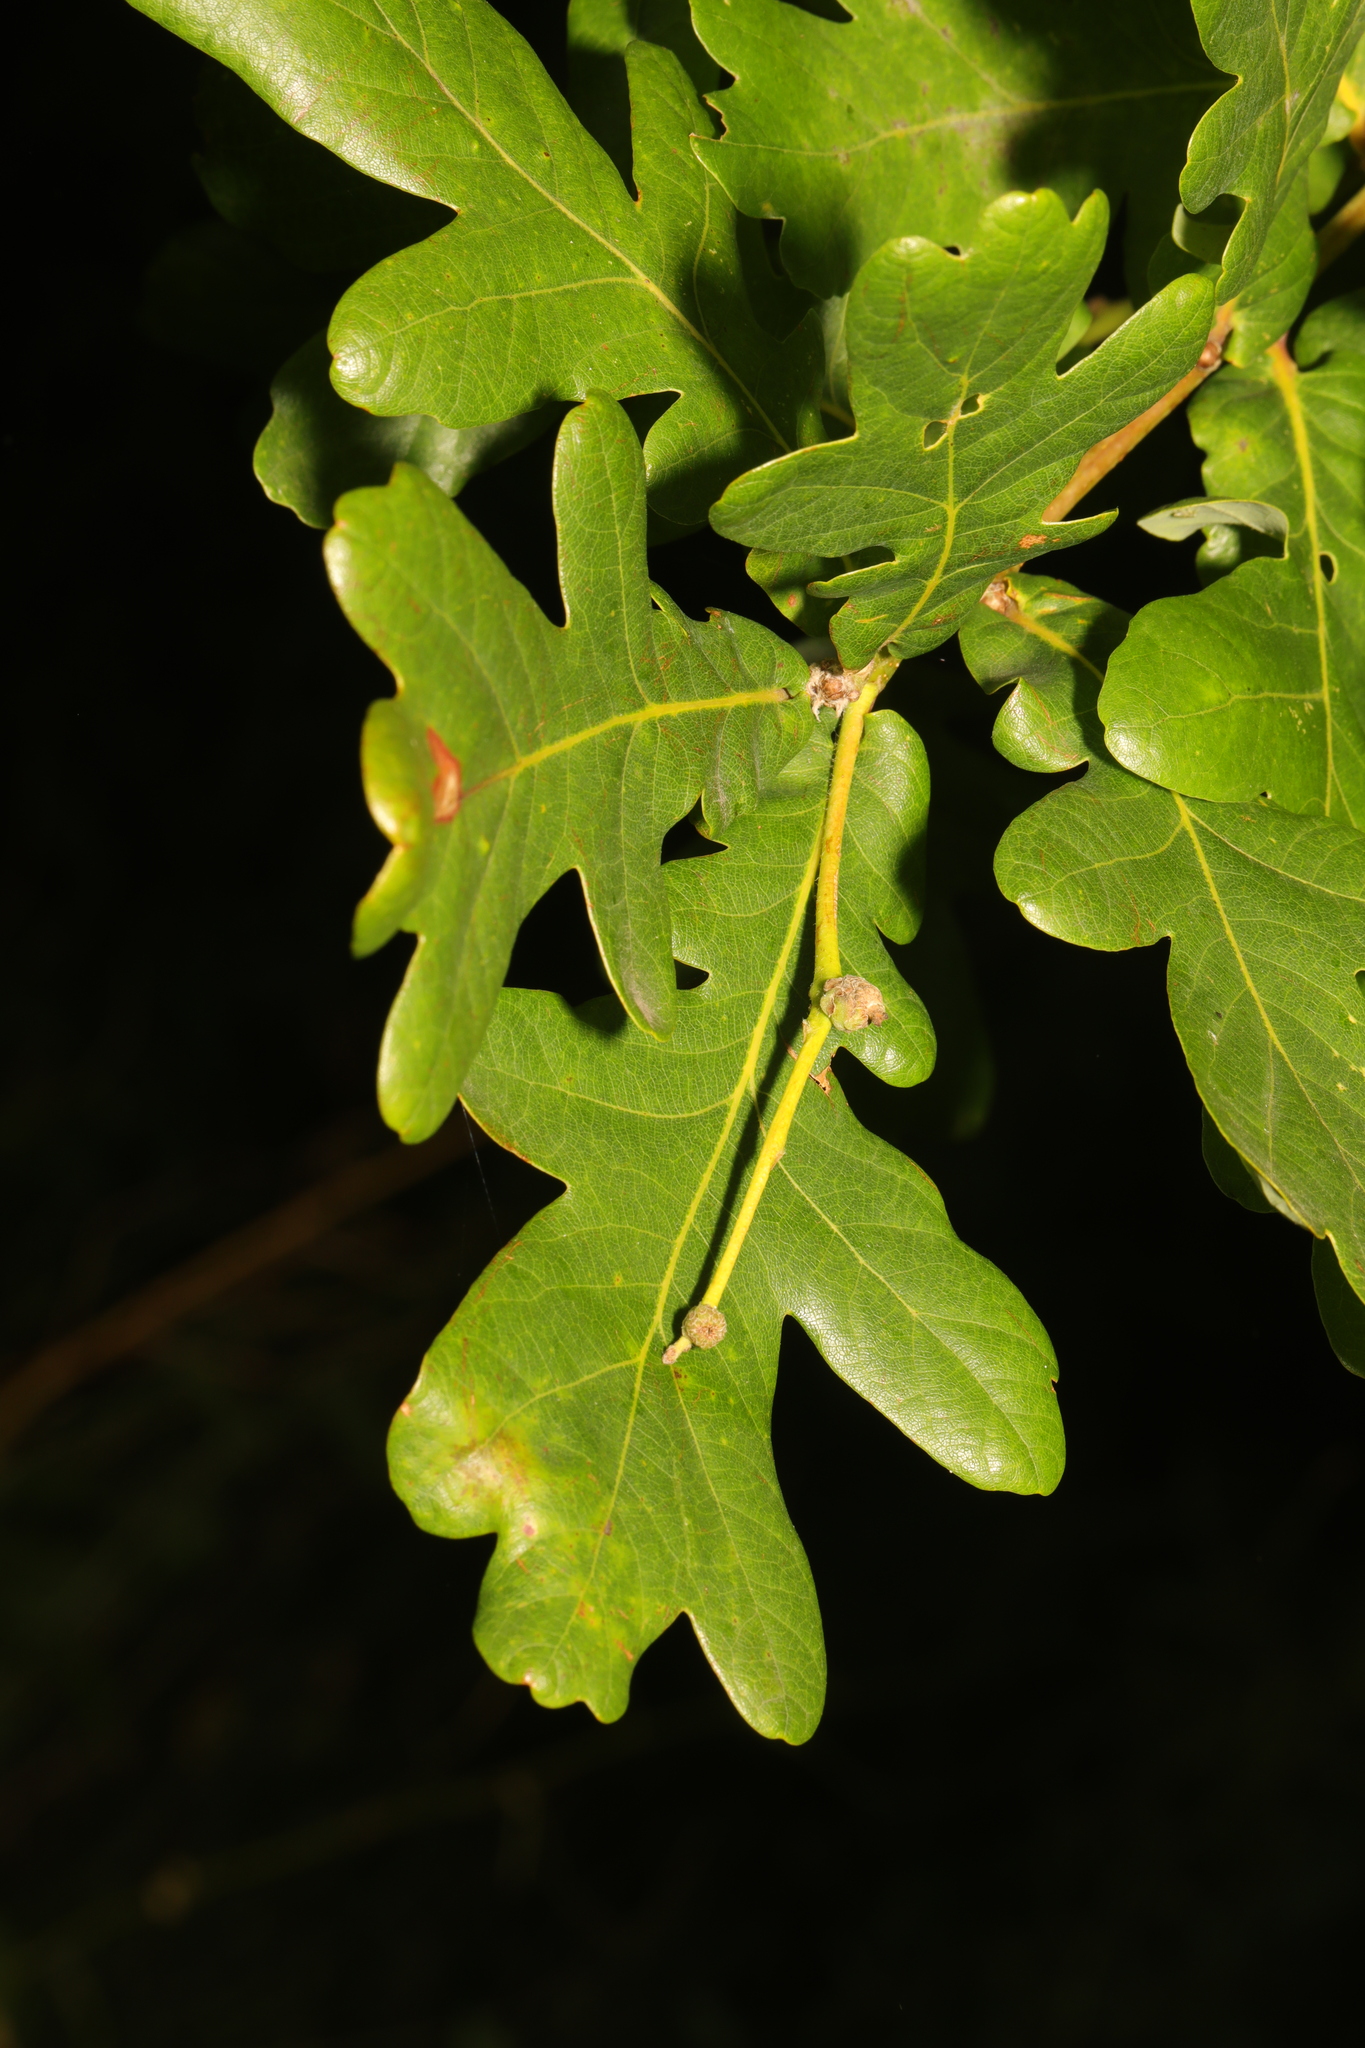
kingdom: Plantae
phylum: Tracheophyta
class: Magnoliopsida
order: Fagales
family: Fagaceae
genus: Quercus
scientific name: Quercus robur
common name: Pedunculate oak
